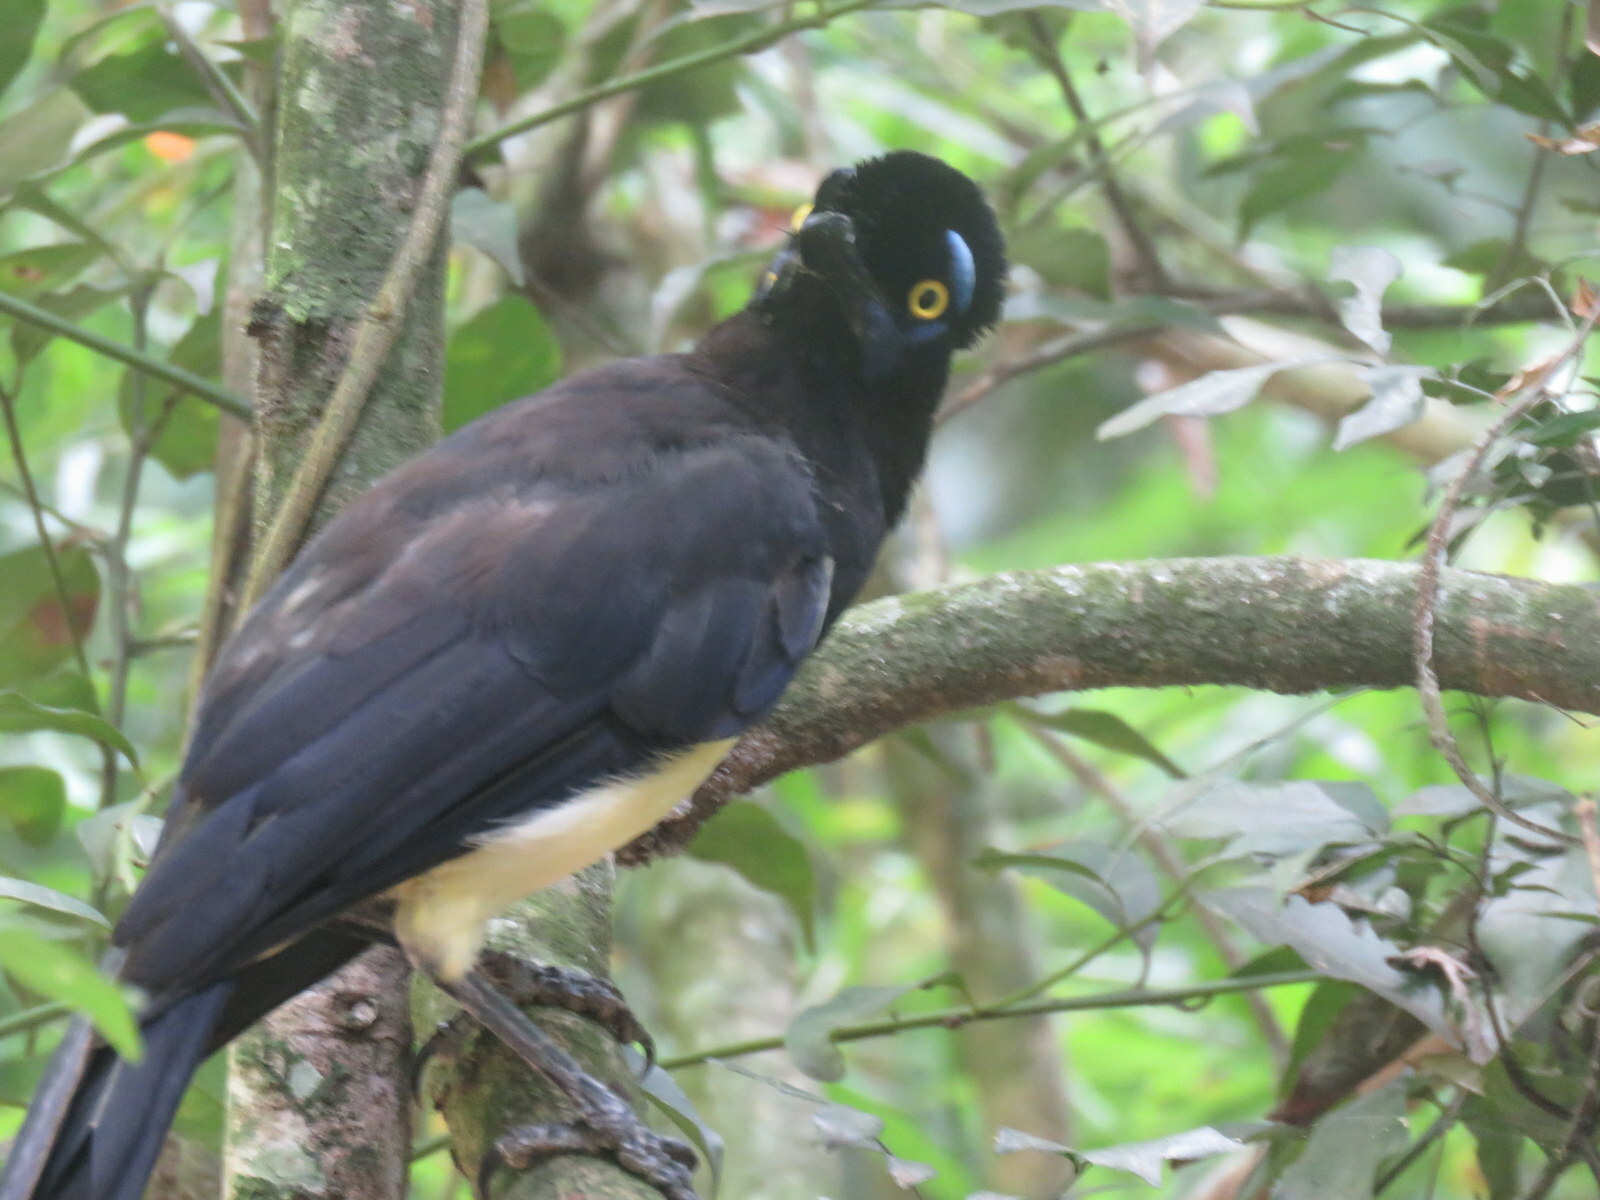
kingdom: Animalia
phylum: Chordata
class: Aves
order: Passeriformes
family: Corvidae
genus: Cyanocorax
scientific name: Cyanocorax chrysops
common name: Plush-crested jay
